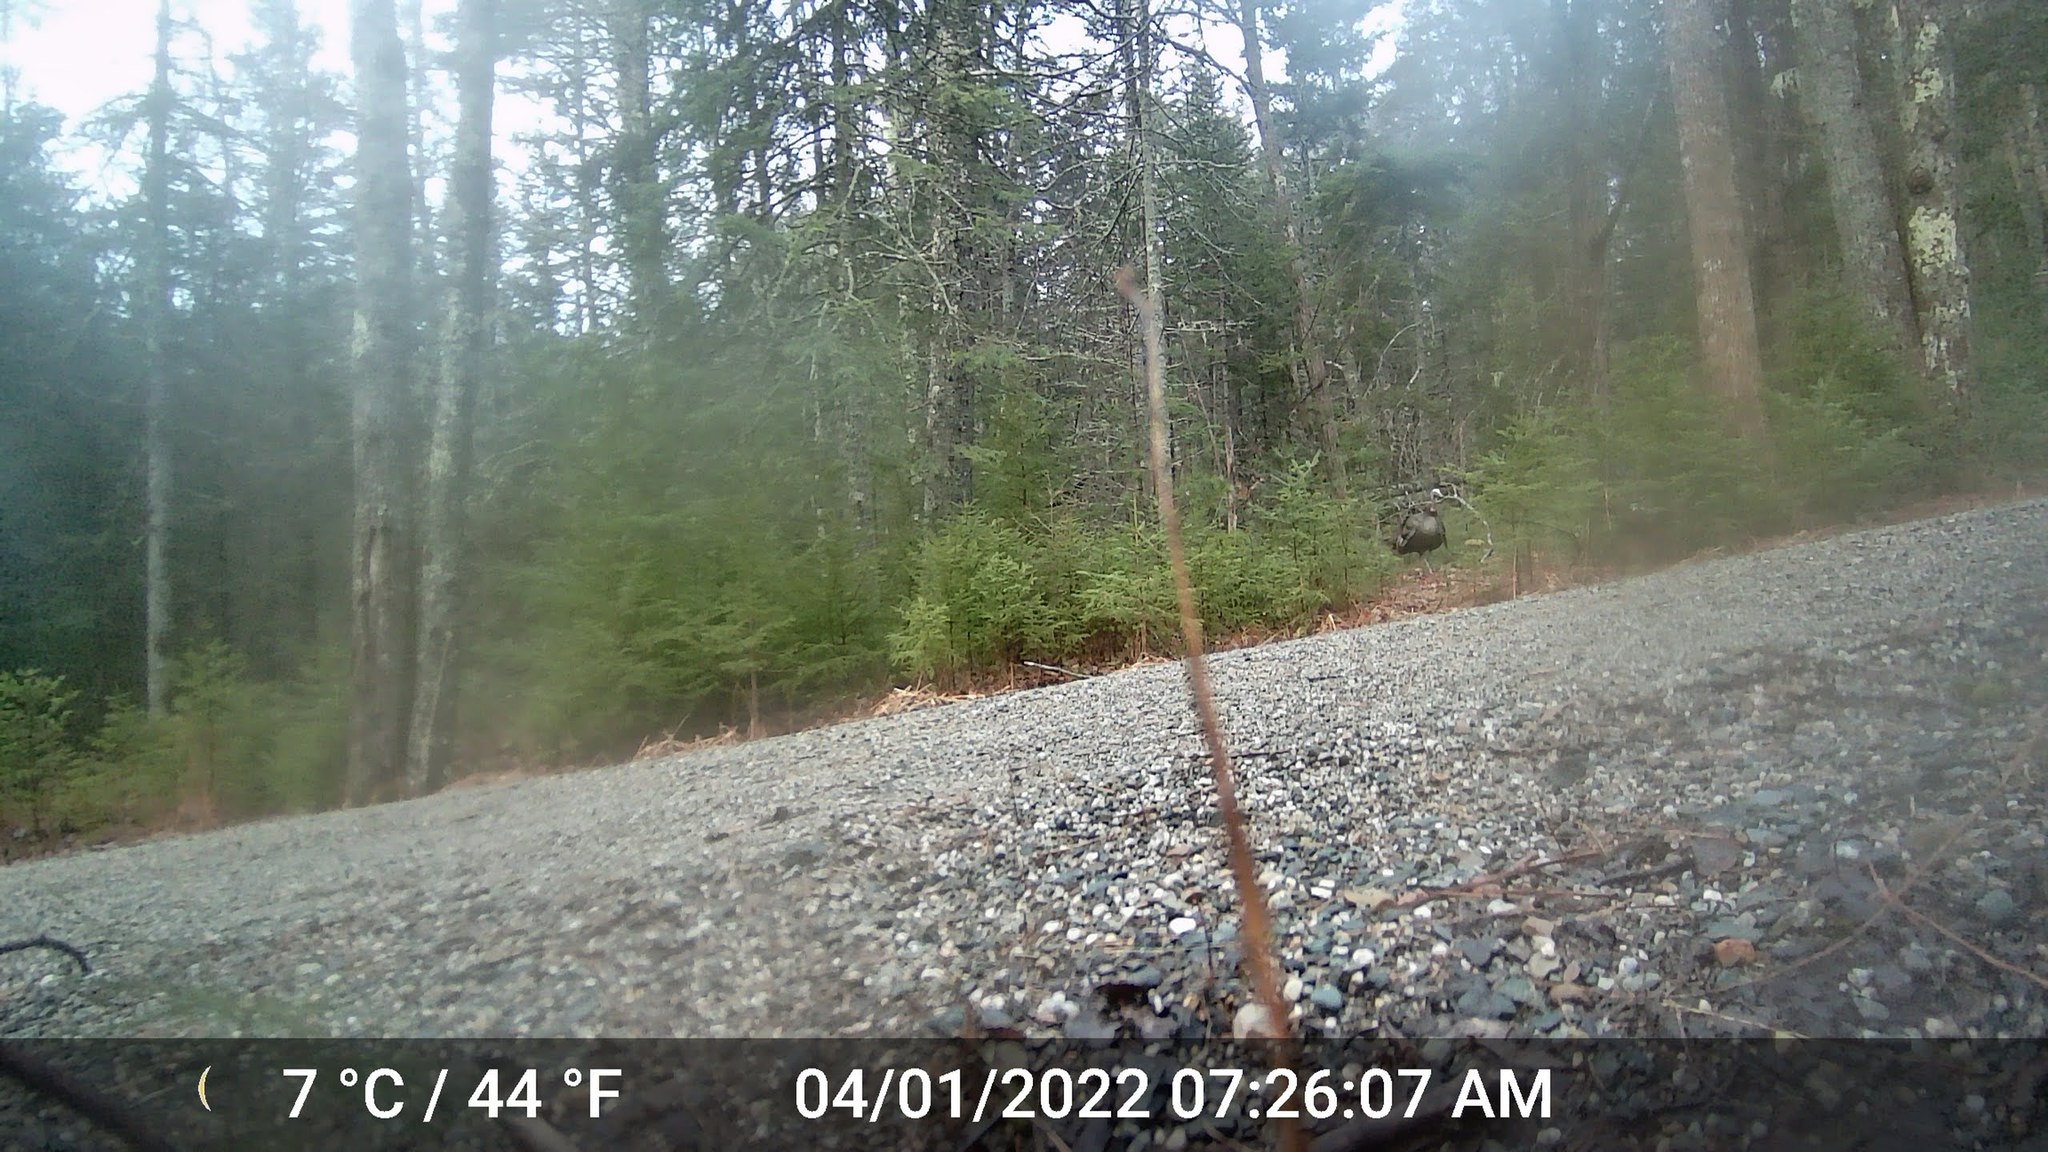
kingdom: Animalia
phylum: Chordata
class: Aves
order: Galliformes
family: Phasianidae
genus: Meleagris
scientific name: Meleagris gallopavo
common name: Wild turkey
